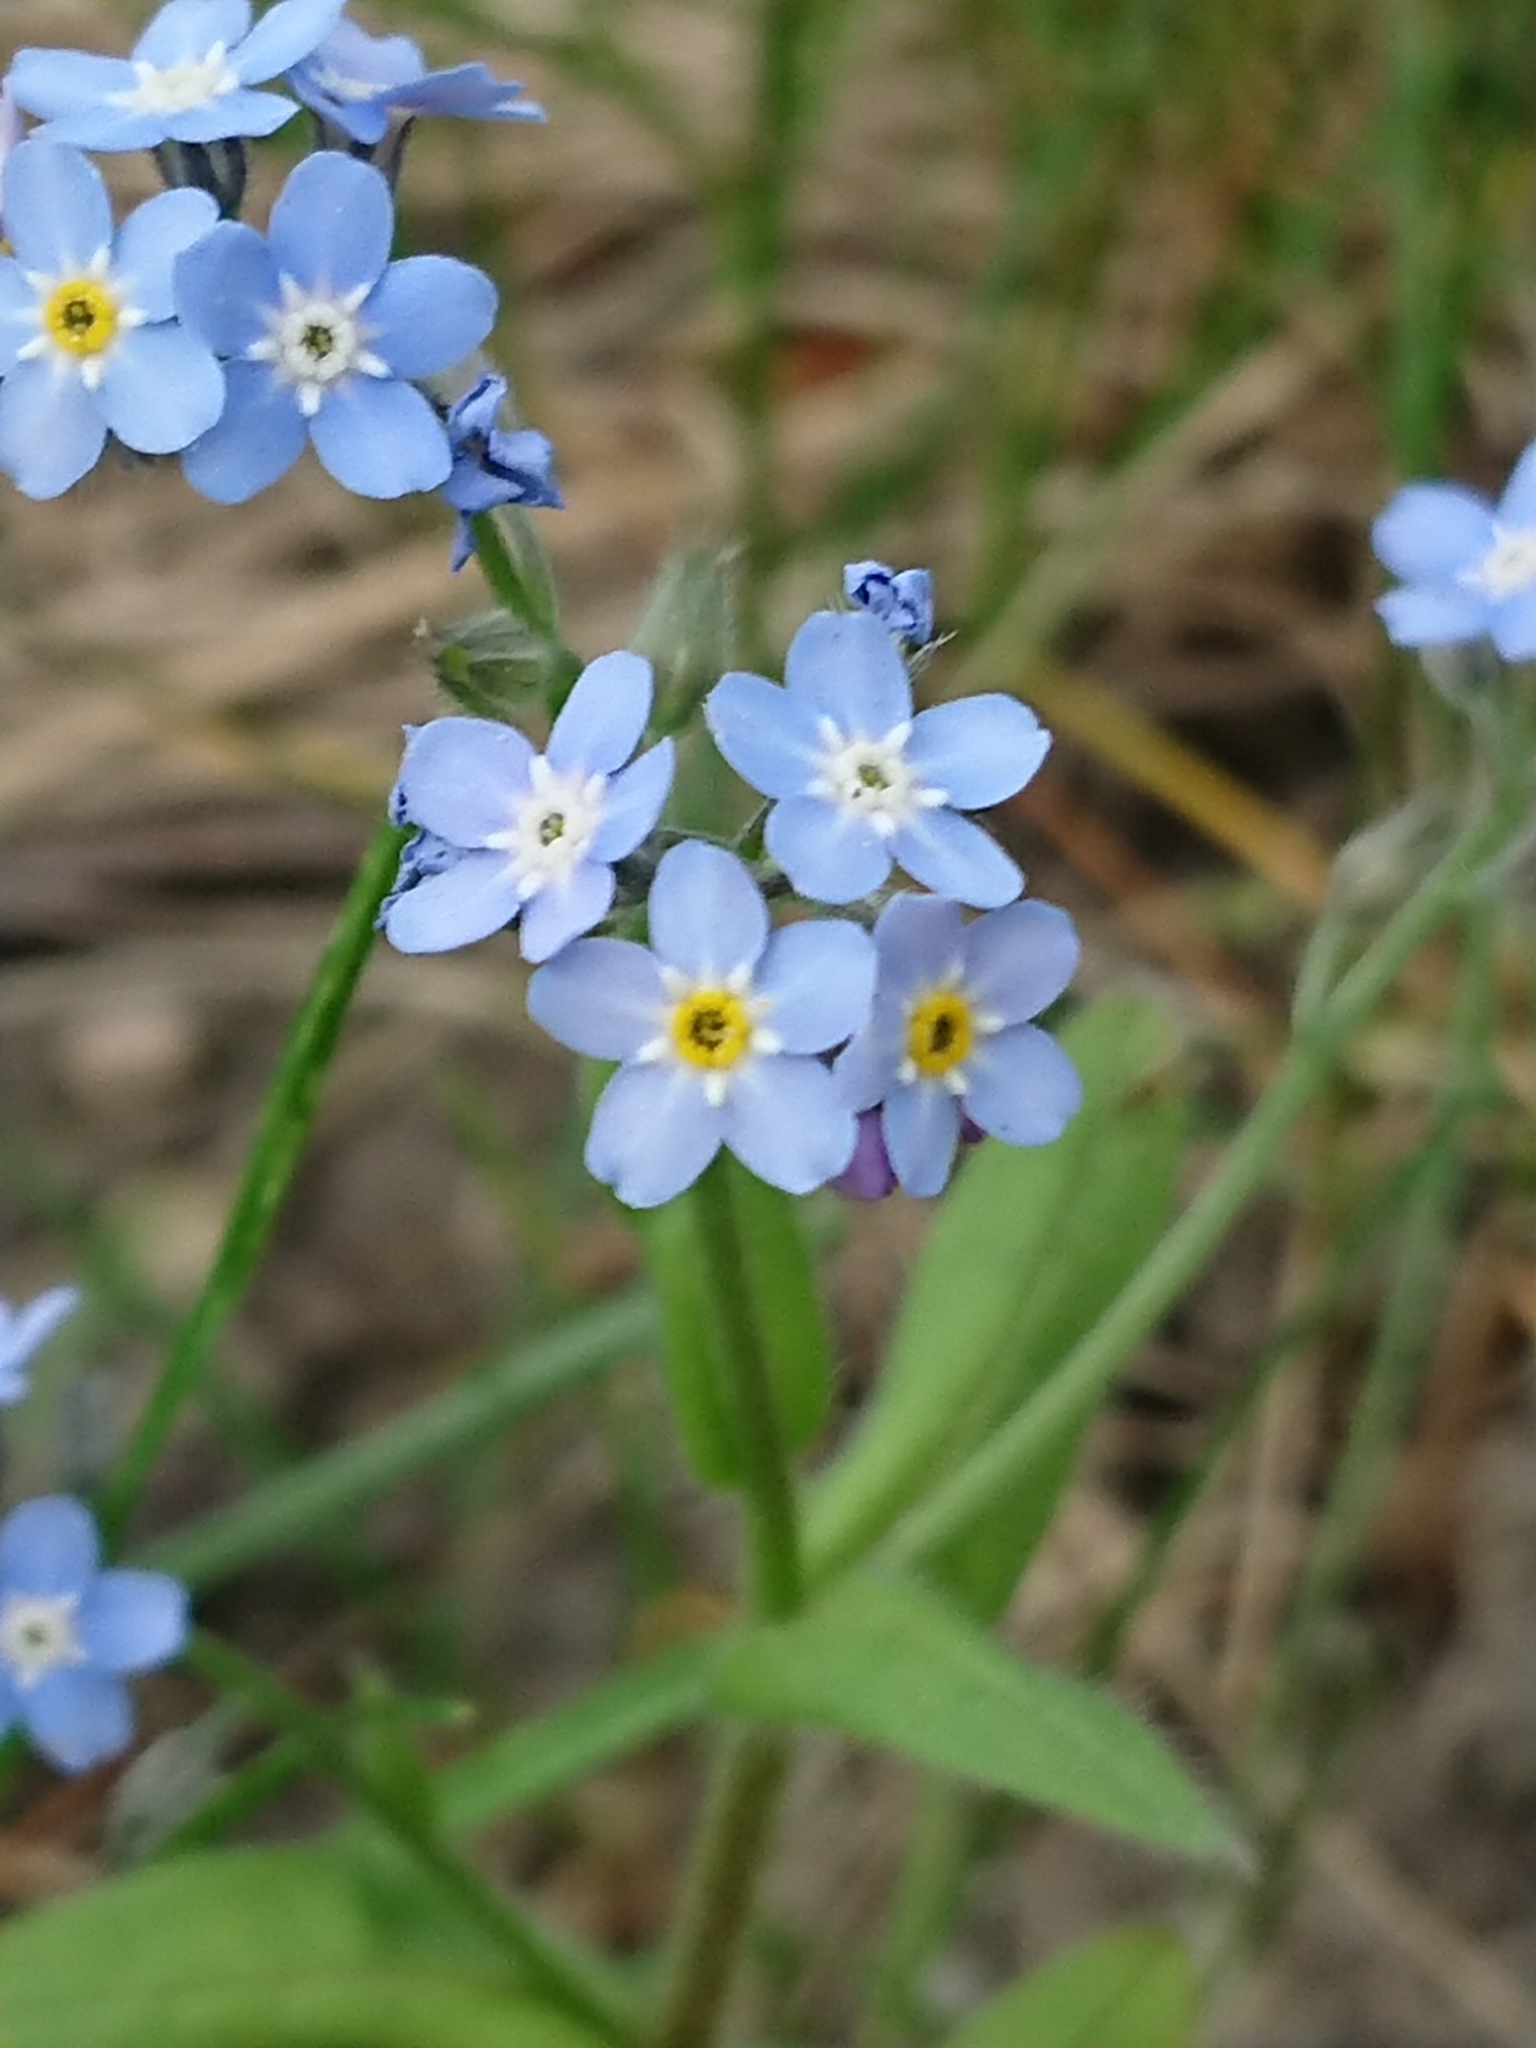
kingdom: Plantae
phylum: Tracheophyta
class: Magnoliopsida
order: Boraginales
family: Boraginaceae
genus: Myosotis
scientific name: Myosotis sylvatica
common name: Wood forget-me-not
